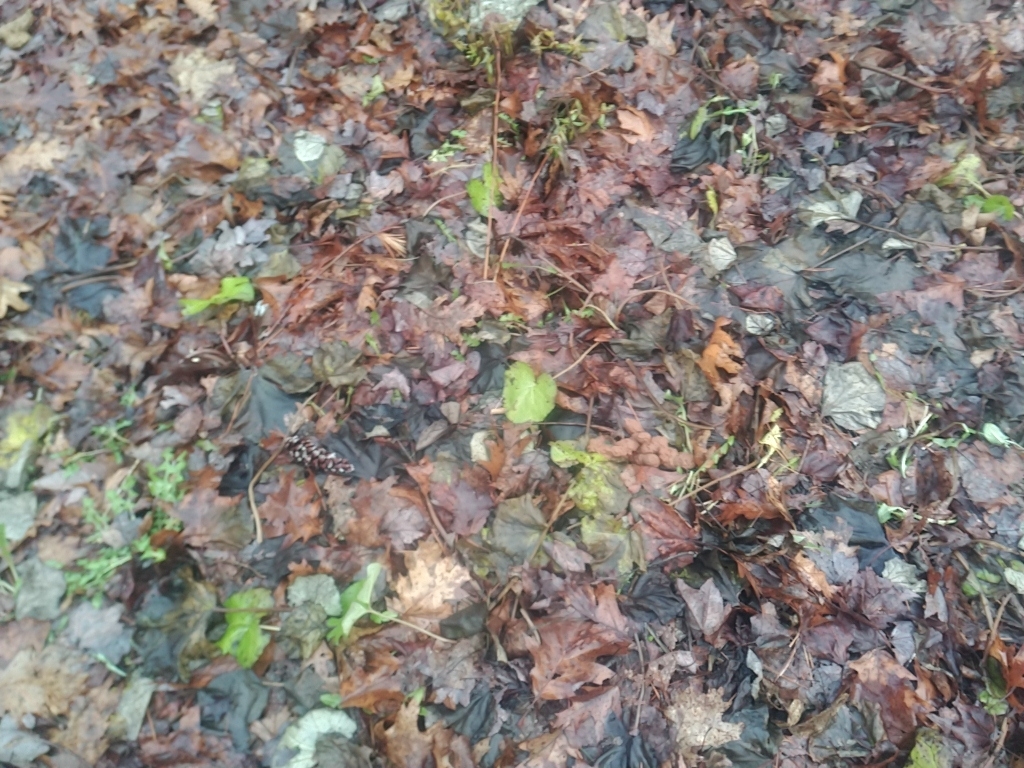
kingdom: Plantae
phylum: Tracheophyta
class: Magnoliopsida
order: Asterales
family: Asteraceae
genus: Tussilago
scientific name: Tussilago farfara
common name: Coltsfoot
